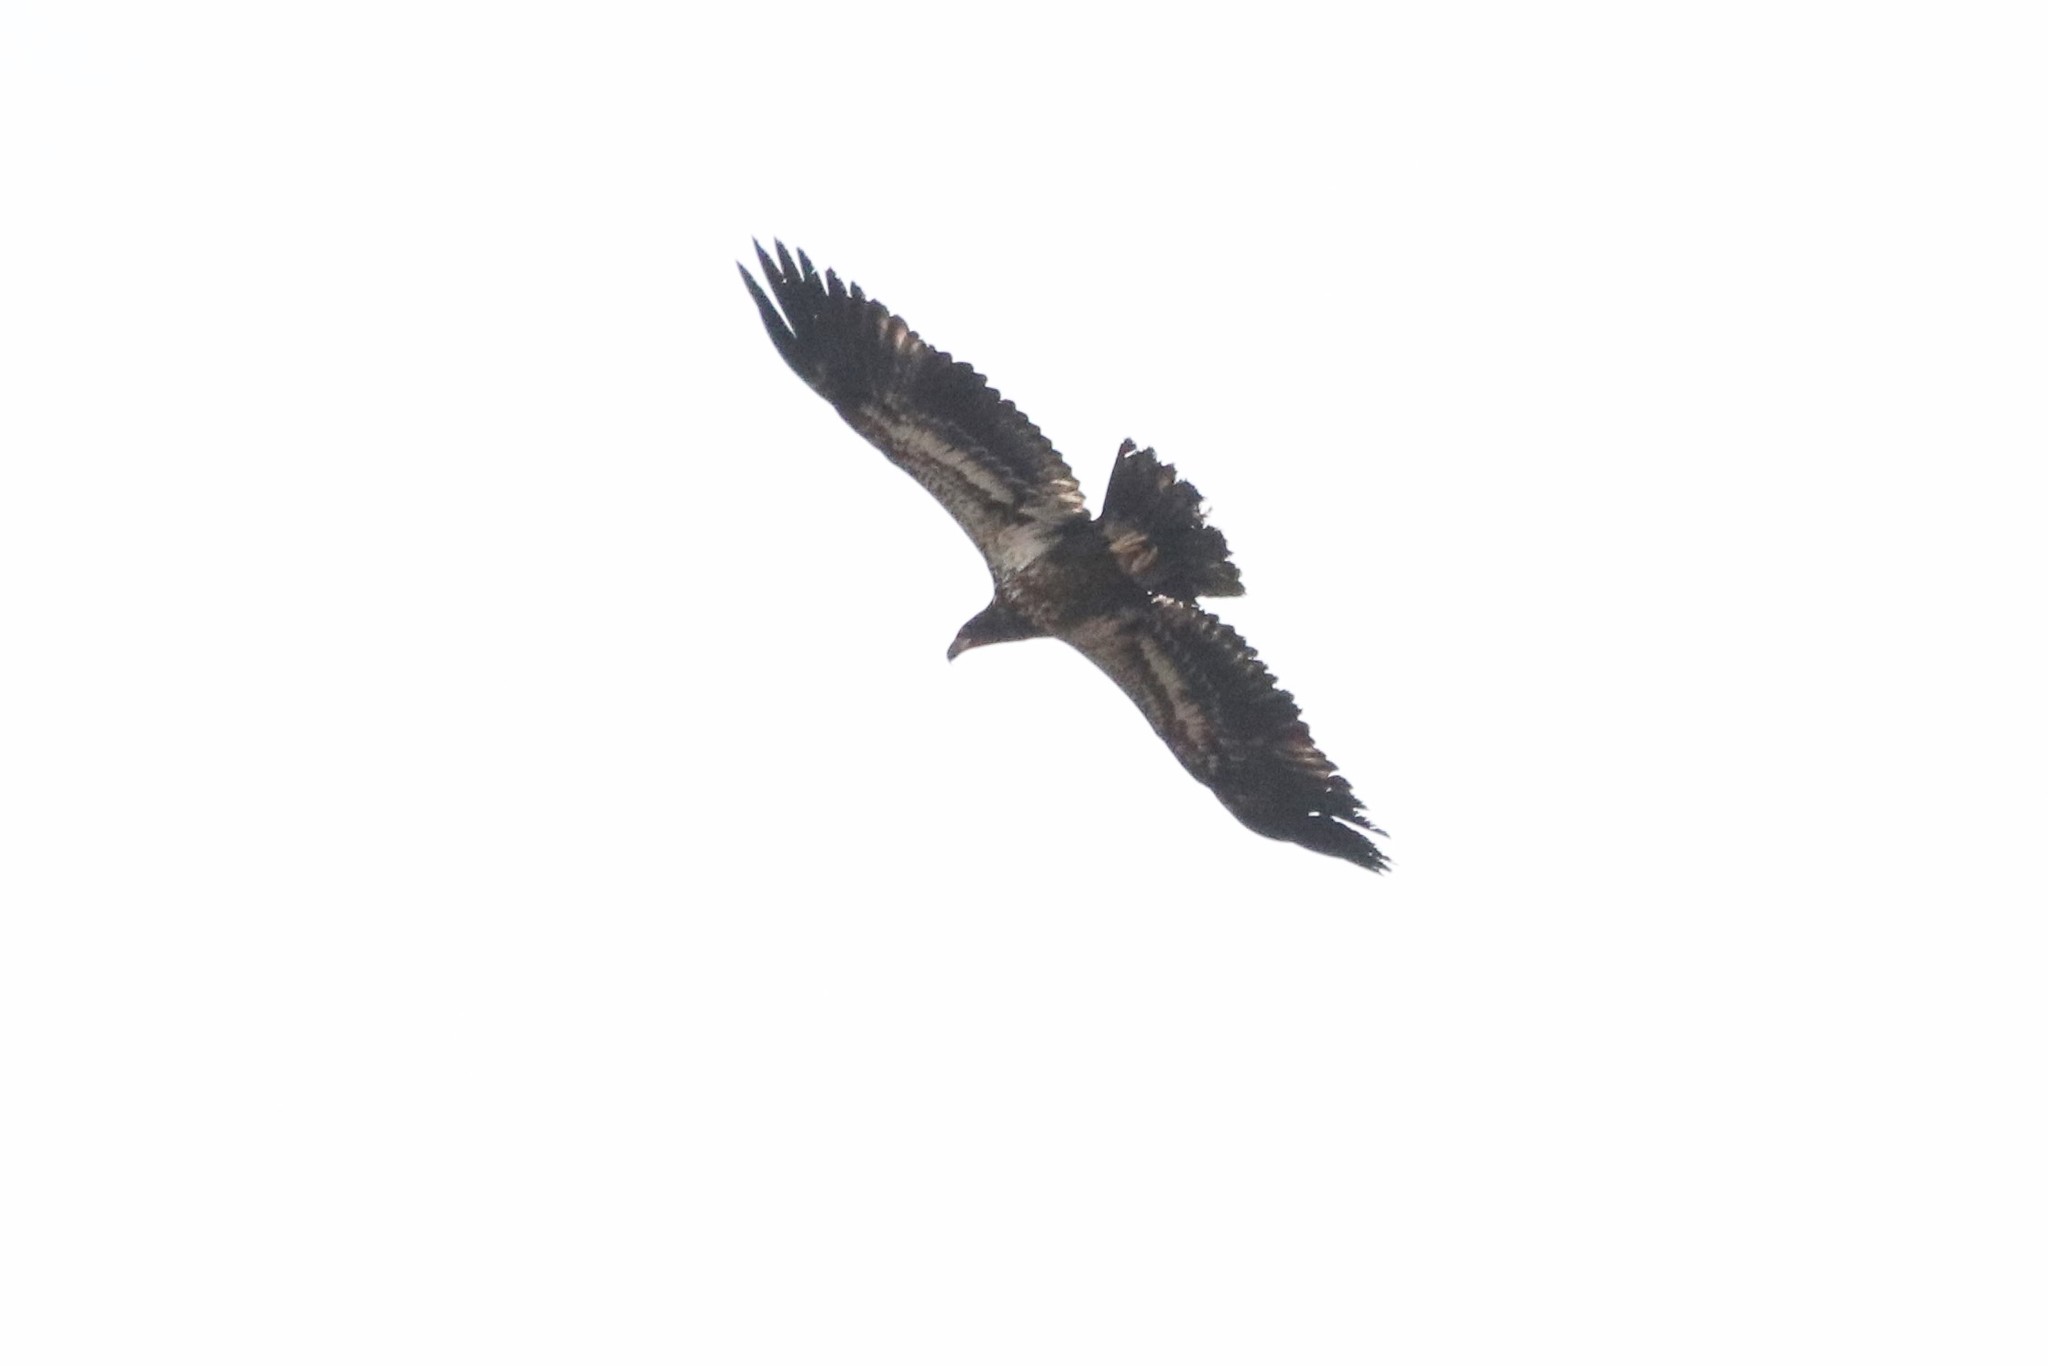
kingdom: Animalia
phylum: Chordata
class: Aves
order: Accipitriformes
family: Accipitridae
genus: Haliaeetus
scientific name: Haliaeetus leucocephalus
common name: Bald eagle
